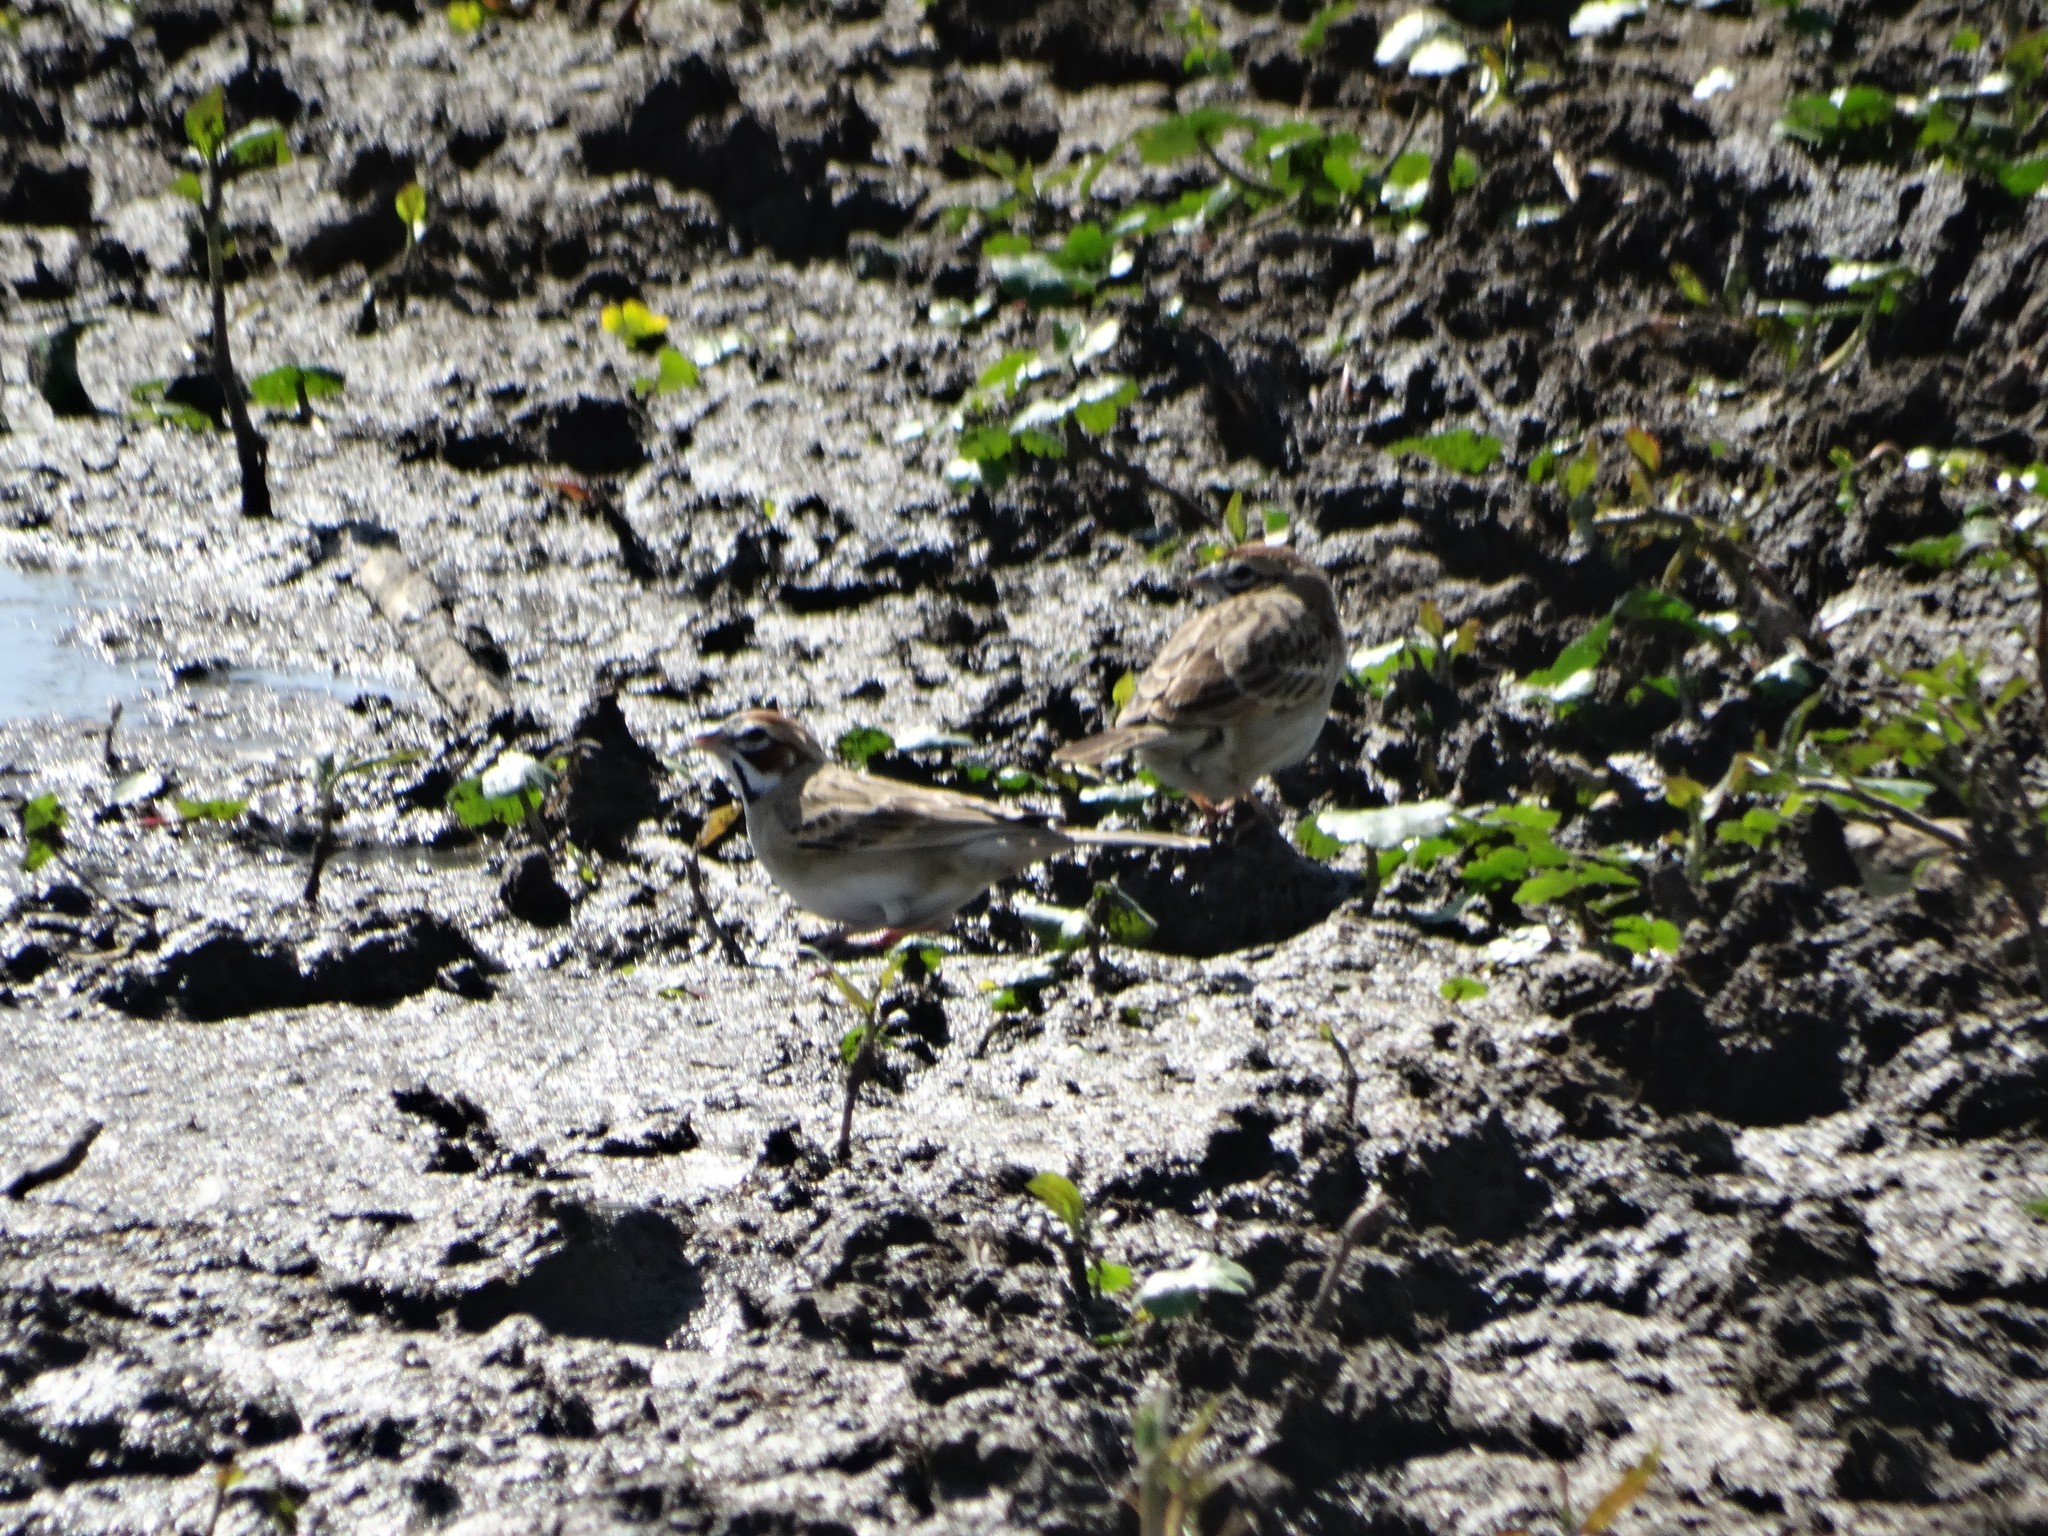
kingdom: Animalia
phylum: Chordata
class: Aves
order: Passeriformes
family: Passerellidae
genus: Chondestes
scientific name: Chondestes grammacus
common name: Lark sparrow
